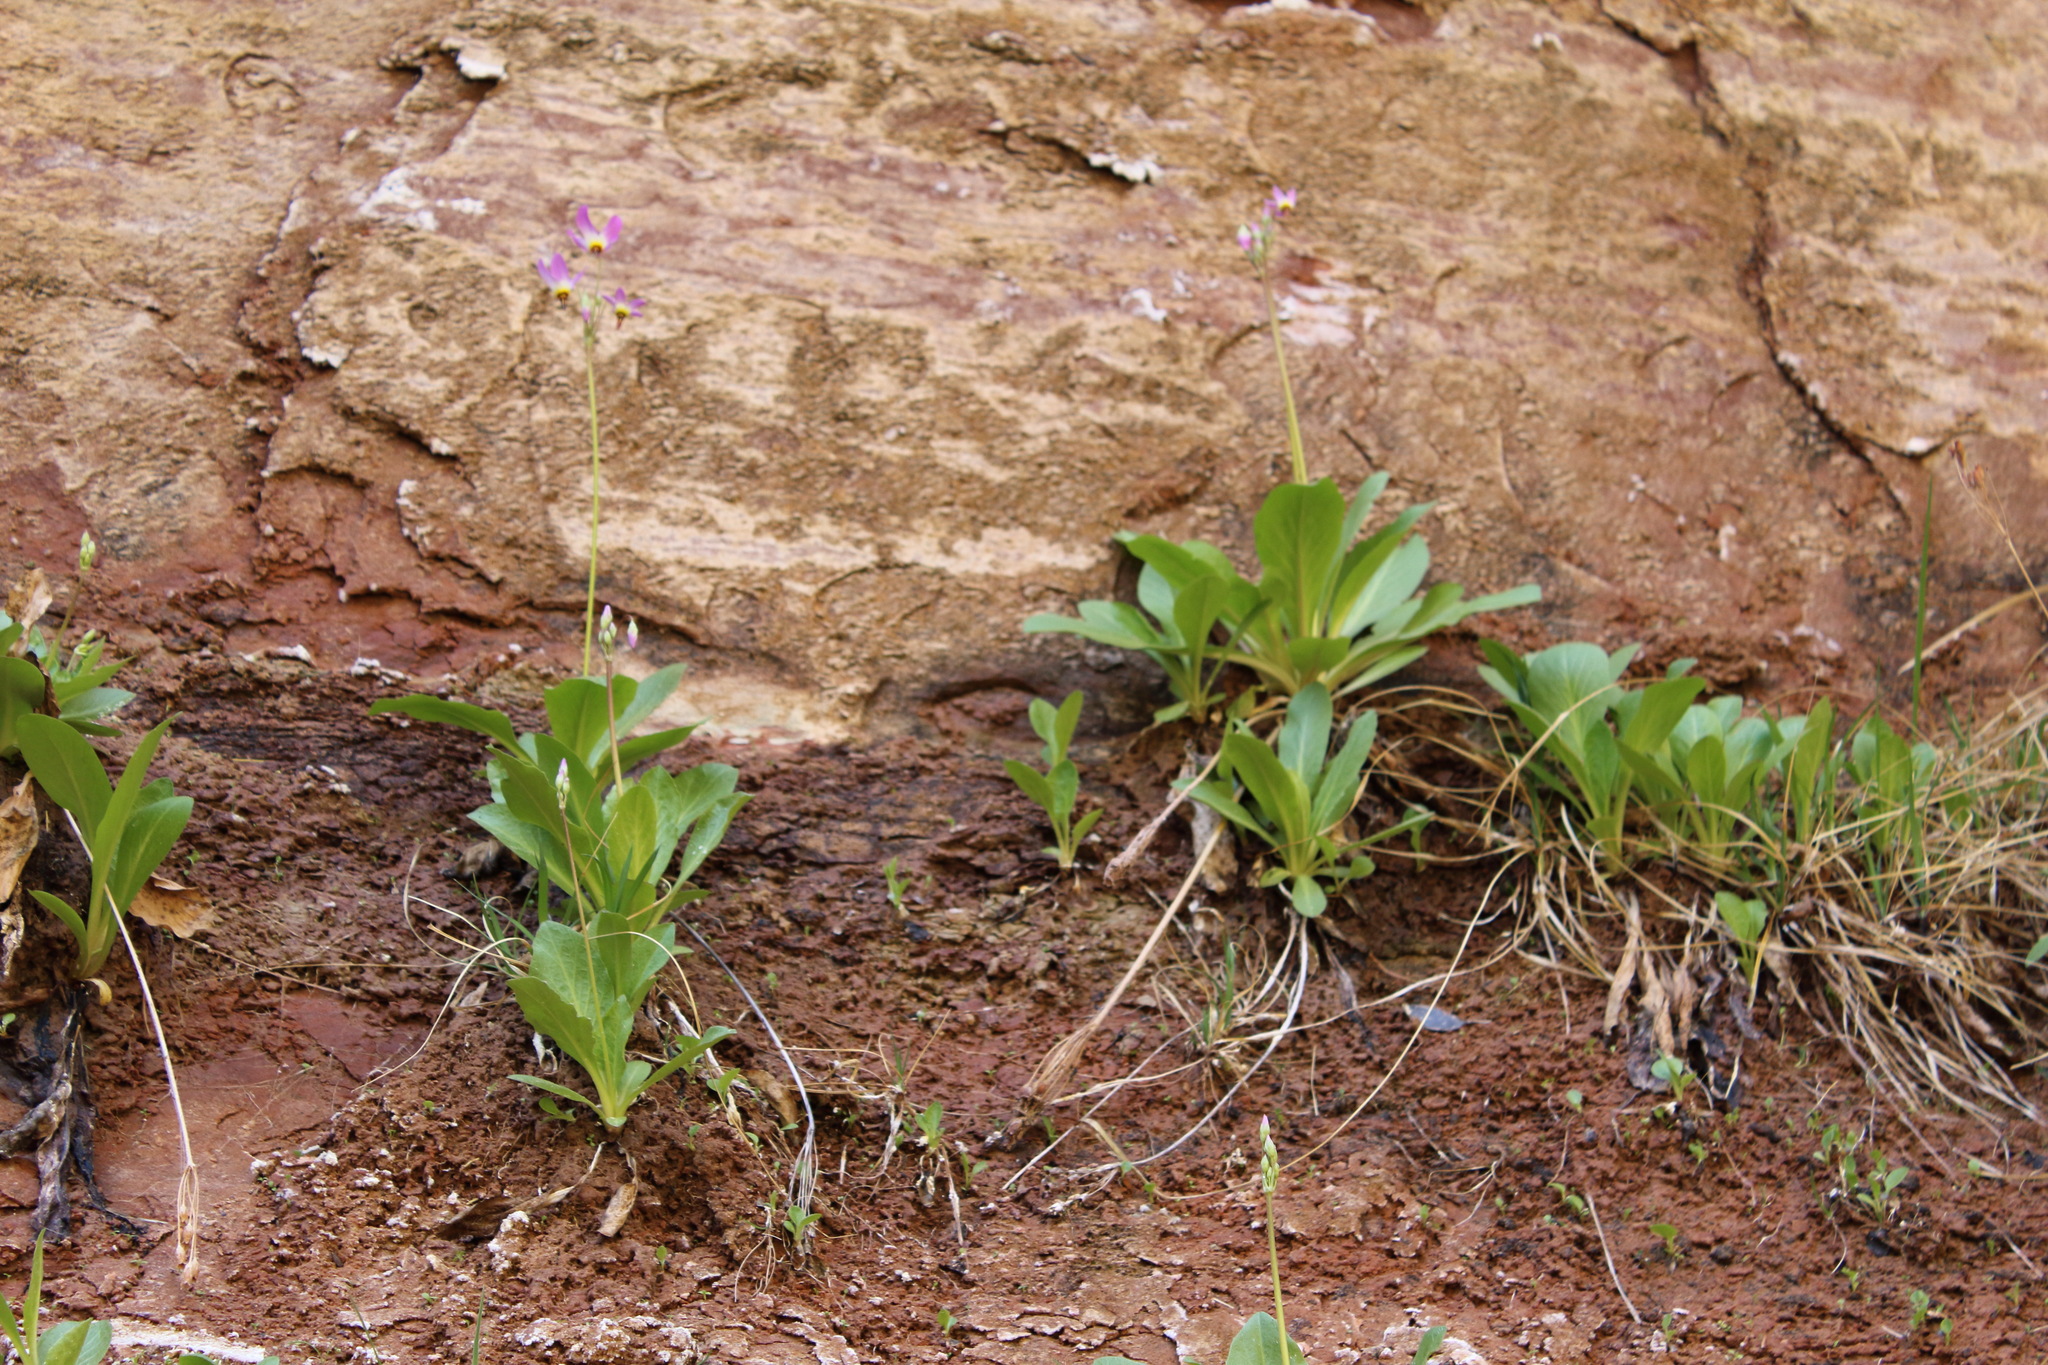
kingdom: Plantae
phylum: Tracheophyta
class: Magnoliopsida
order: Ericales
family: Primulaceae
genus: Dodecatheon
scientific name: Dodecatheon pulchellum
